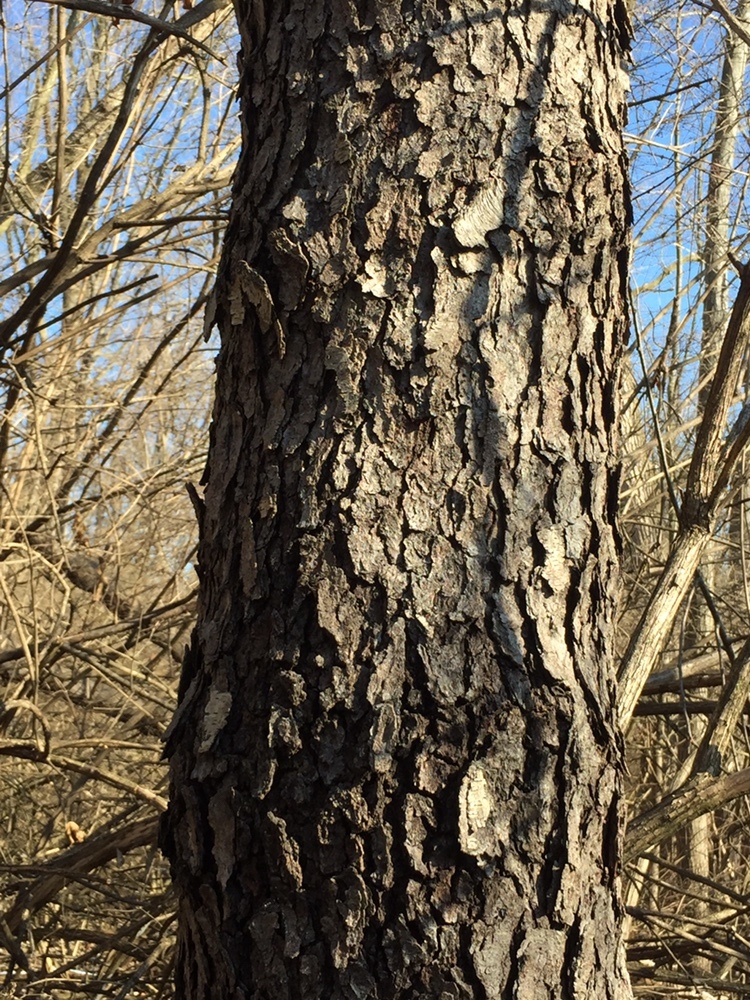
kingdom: Plantae
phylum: Tracheophyta
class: Magnoliopsida
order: Rosales
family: Rosaceae
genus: Prunus
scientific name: Prunus serotina
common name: Black cherry
